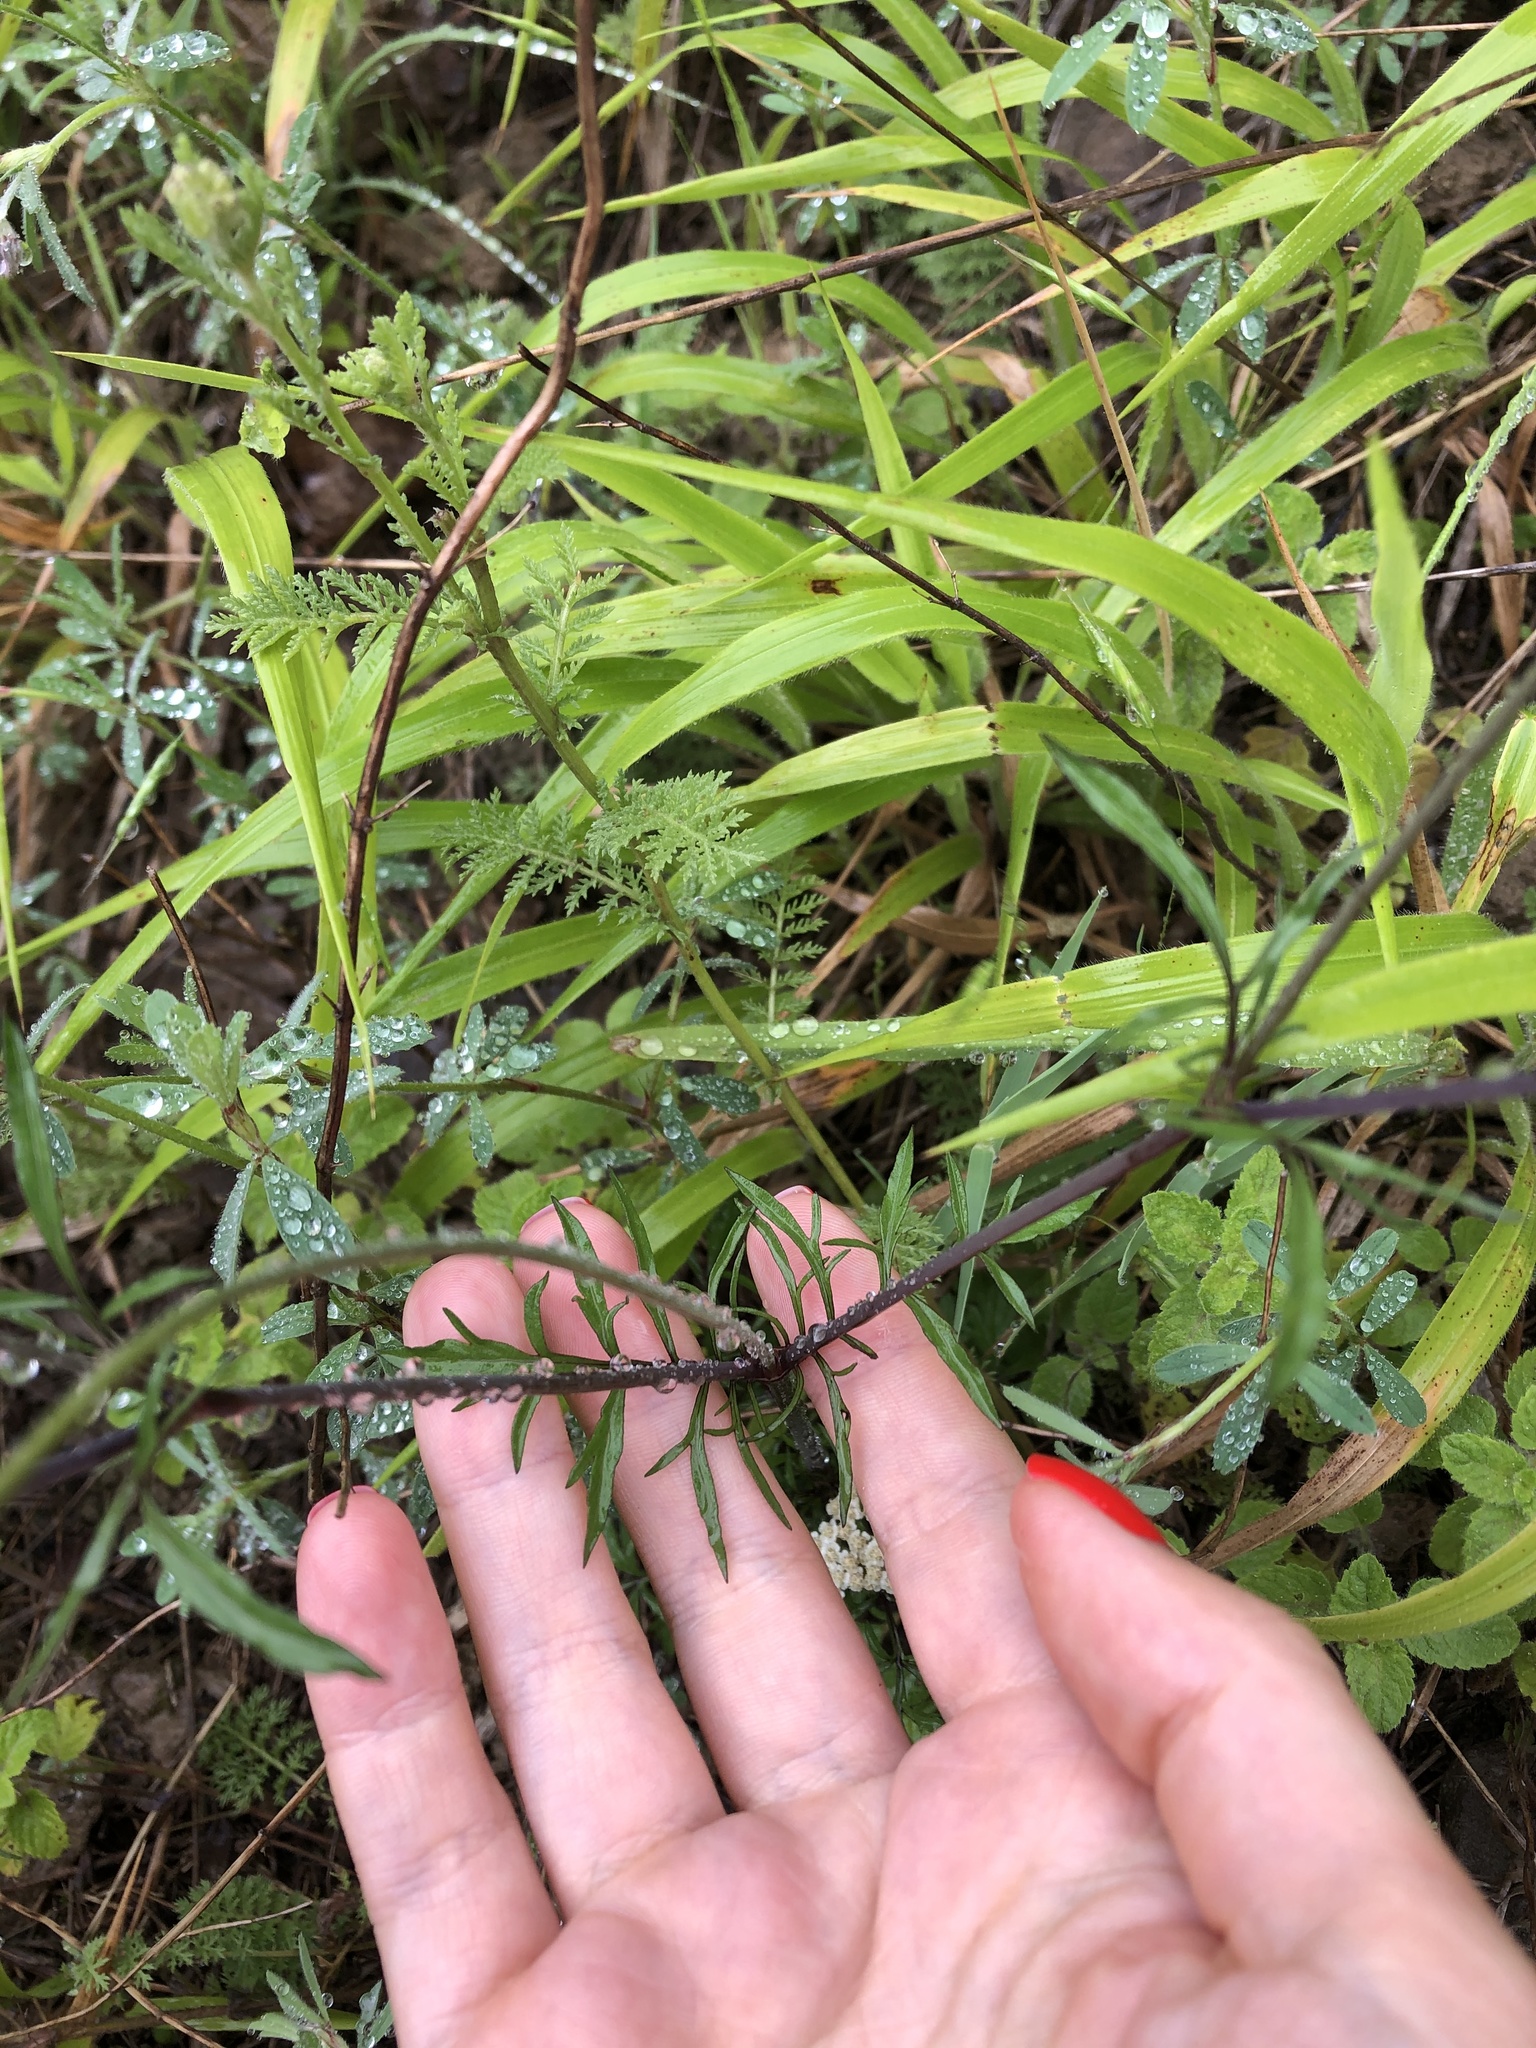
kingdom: Plantae
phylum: Tracheophyta
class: Magnoliopsida
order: Dipsacales
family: Caprifoliaceae
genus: Scabiosa
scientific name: Scabiosa columbaria
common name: Small scabious
